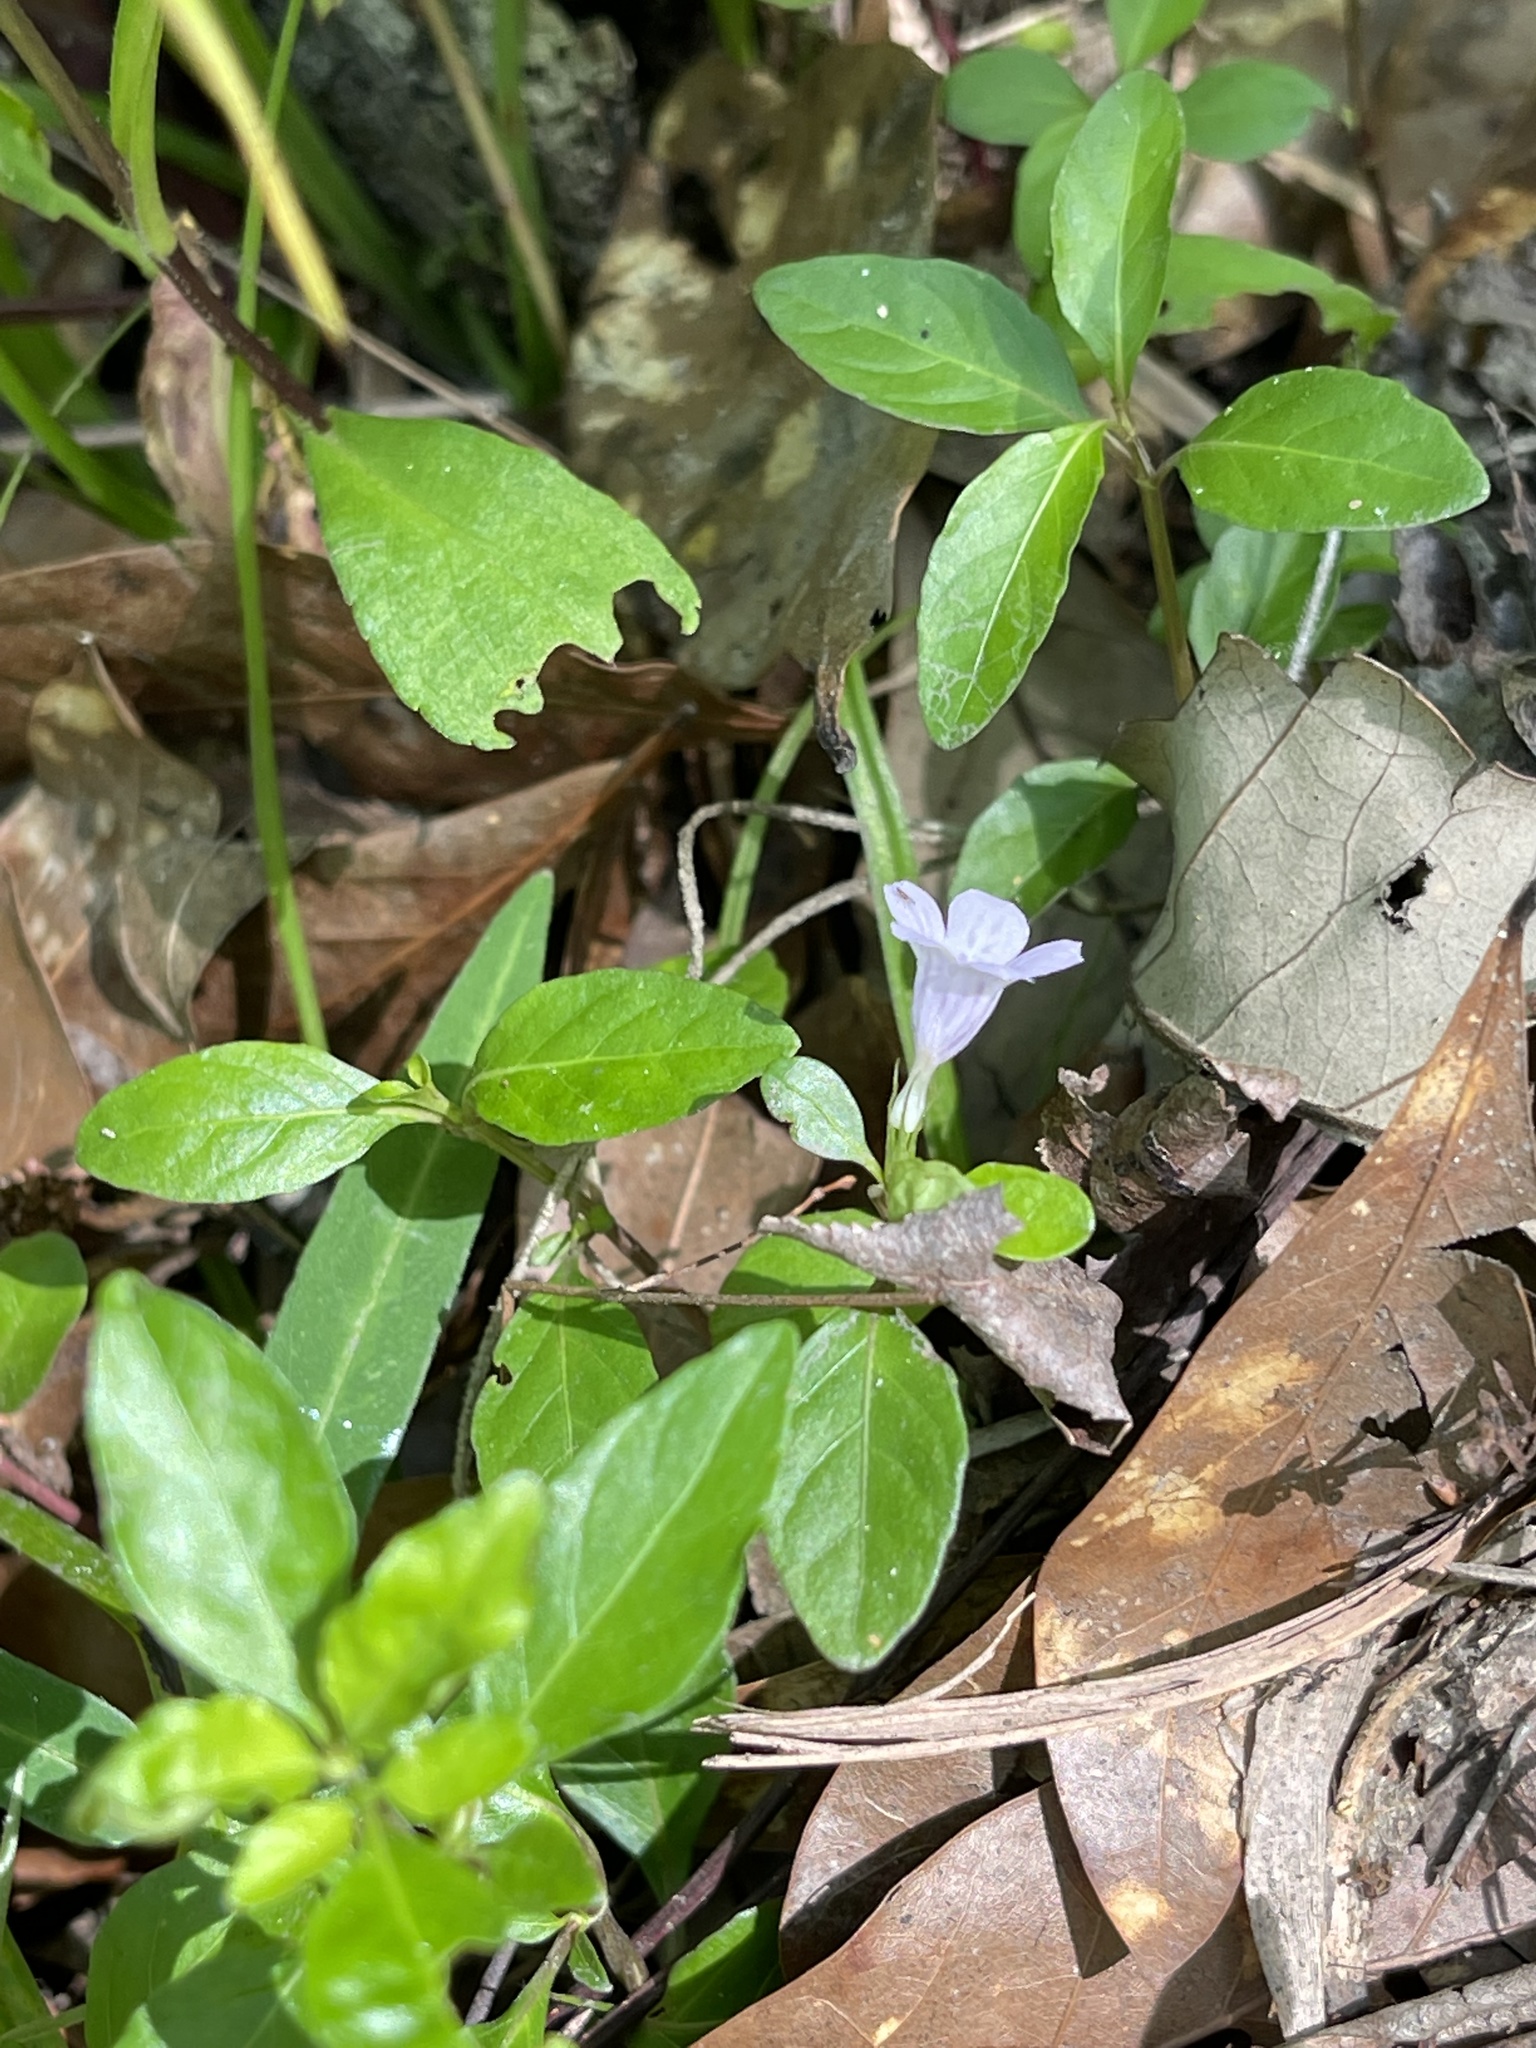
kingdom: Plantae
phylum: Tracheophyta
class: Magnoliopsida
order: Lamiales
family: Acanthaceae
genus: Dyschoriste
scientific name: Dyschoriste oblongifolia
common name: Blue twinflower
